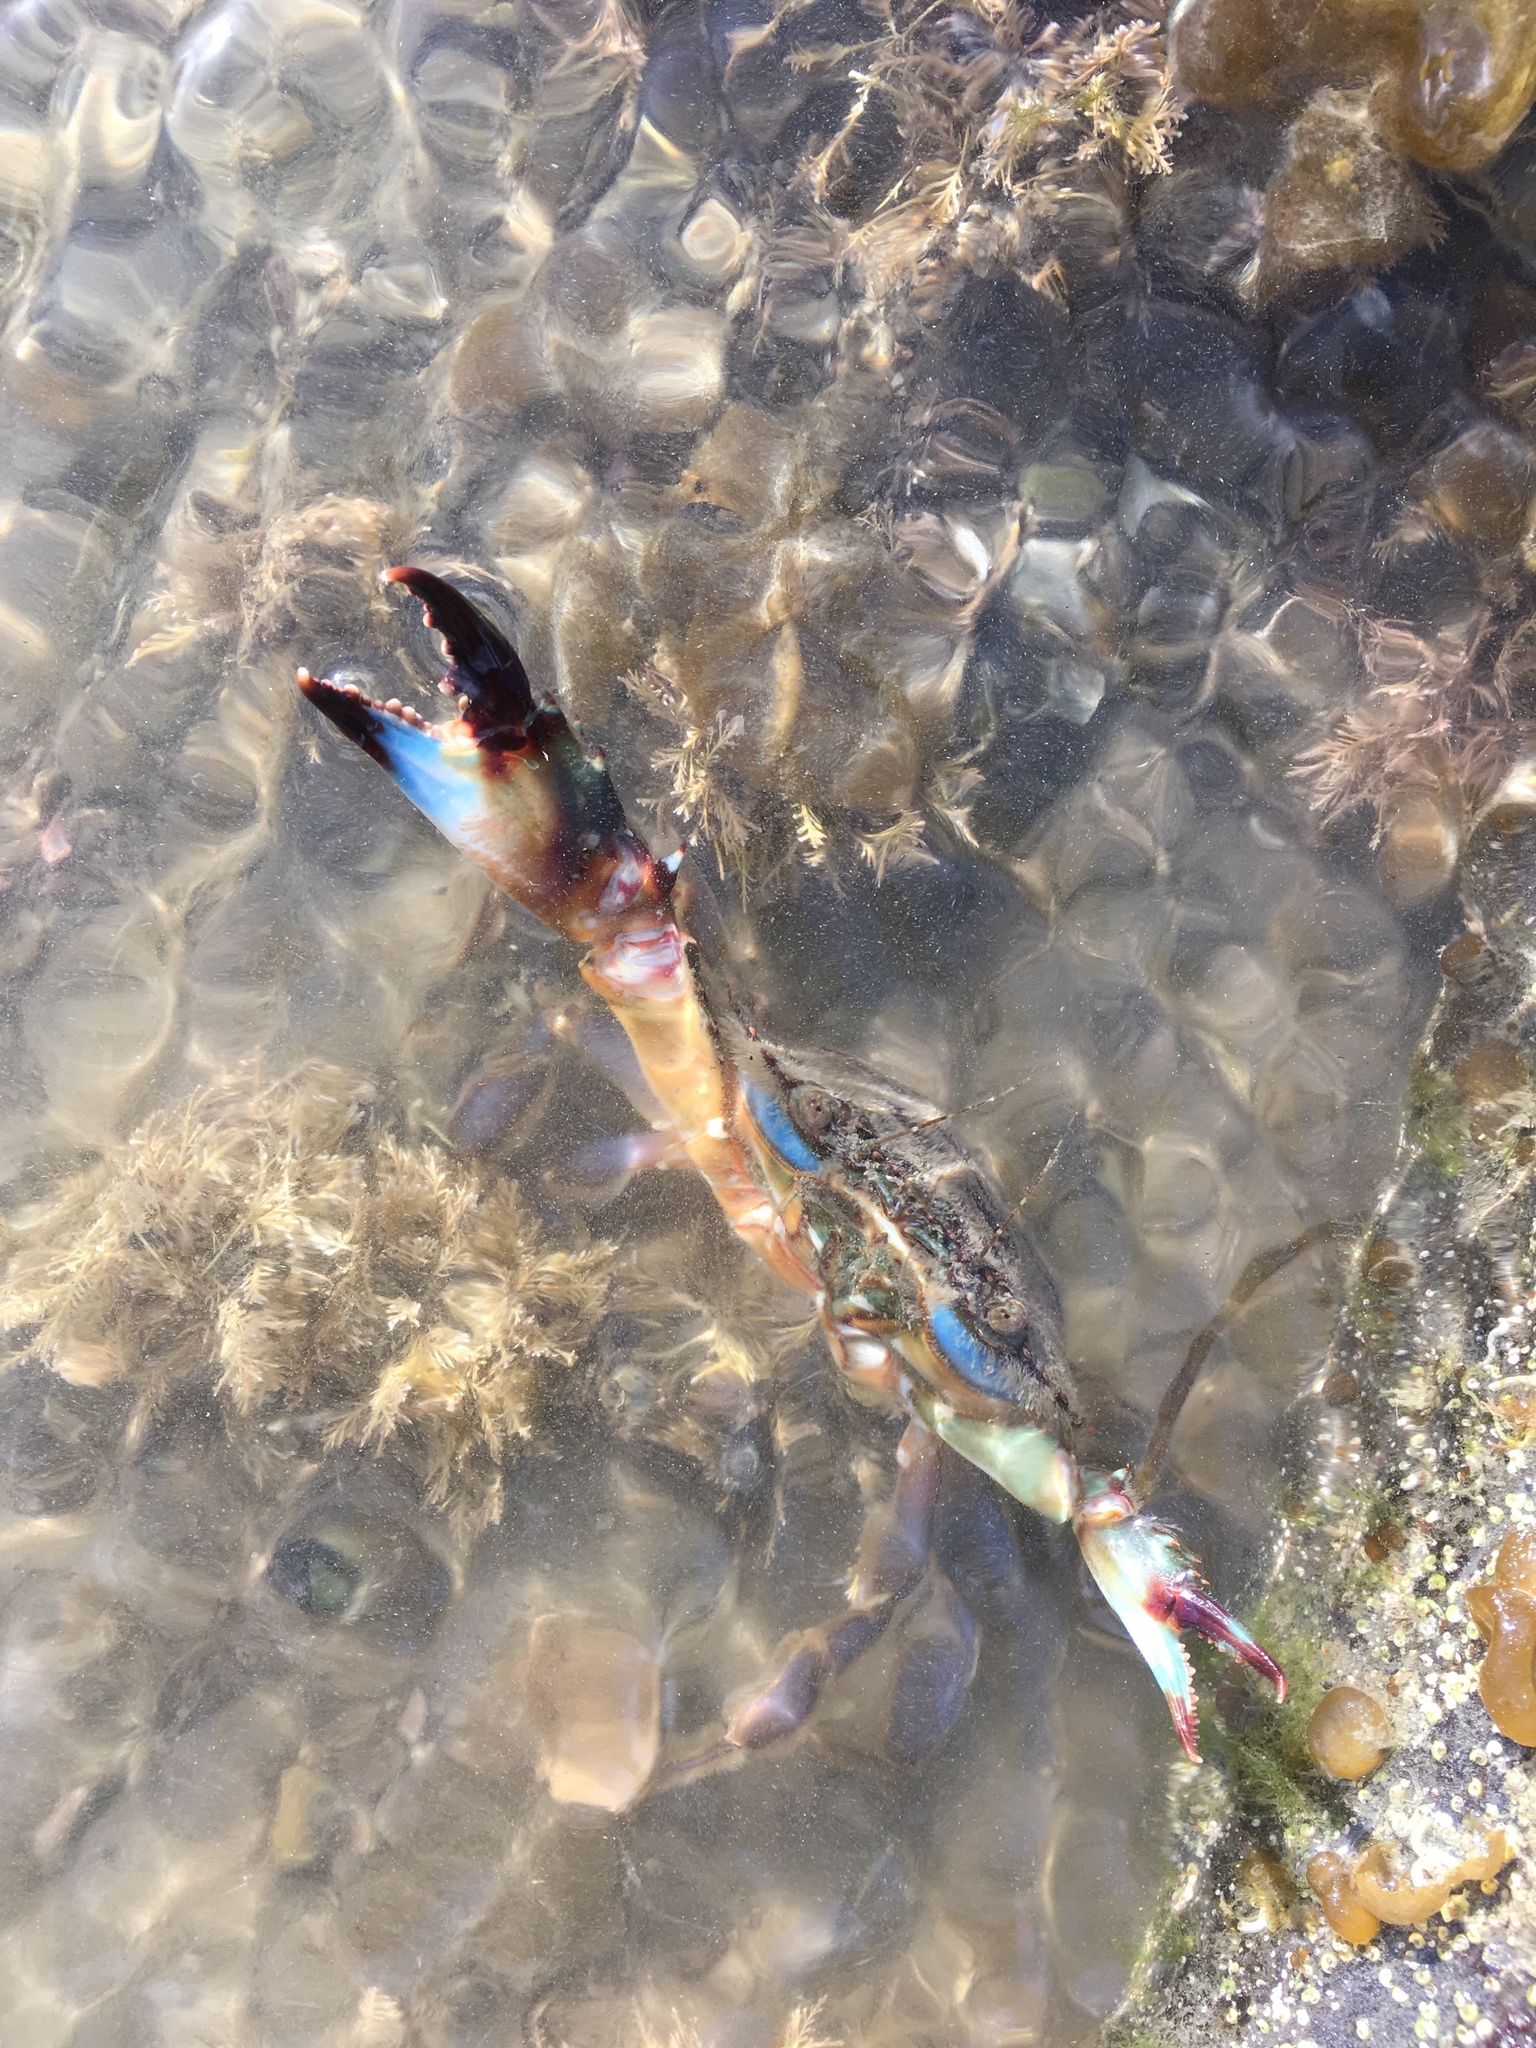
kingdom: Animalia
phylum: Arthropoda
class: Malacostraca
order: Decapoda
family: Portunidae
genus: Charybdis
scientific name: Charybdis japonica
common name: Asian paddle crab
